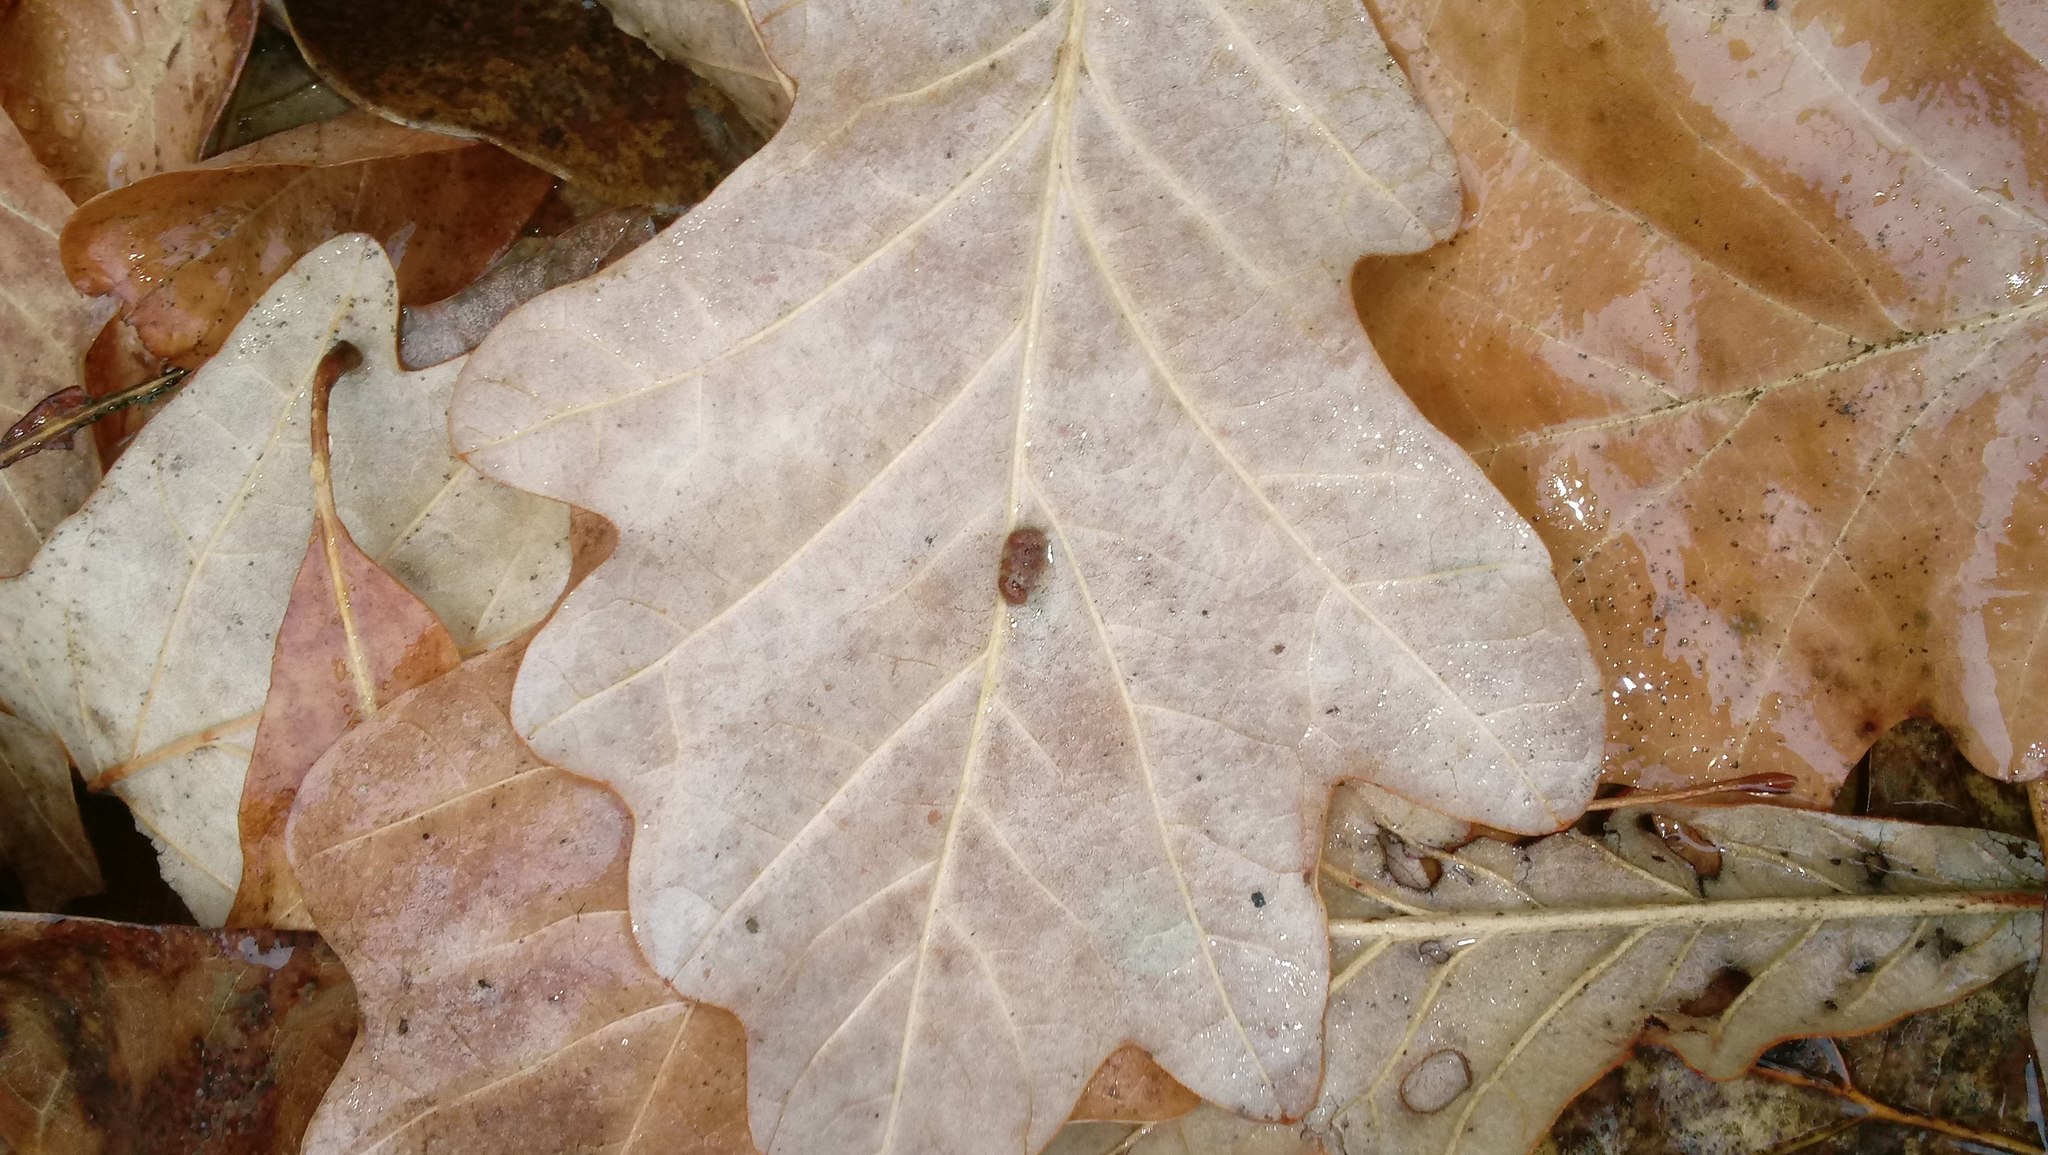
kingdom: Animalia
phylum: Arthropoda
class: Insecta
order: Hymenoptera
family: Cynipidae
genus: Andricus
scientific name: Andricus Druon ignotum
